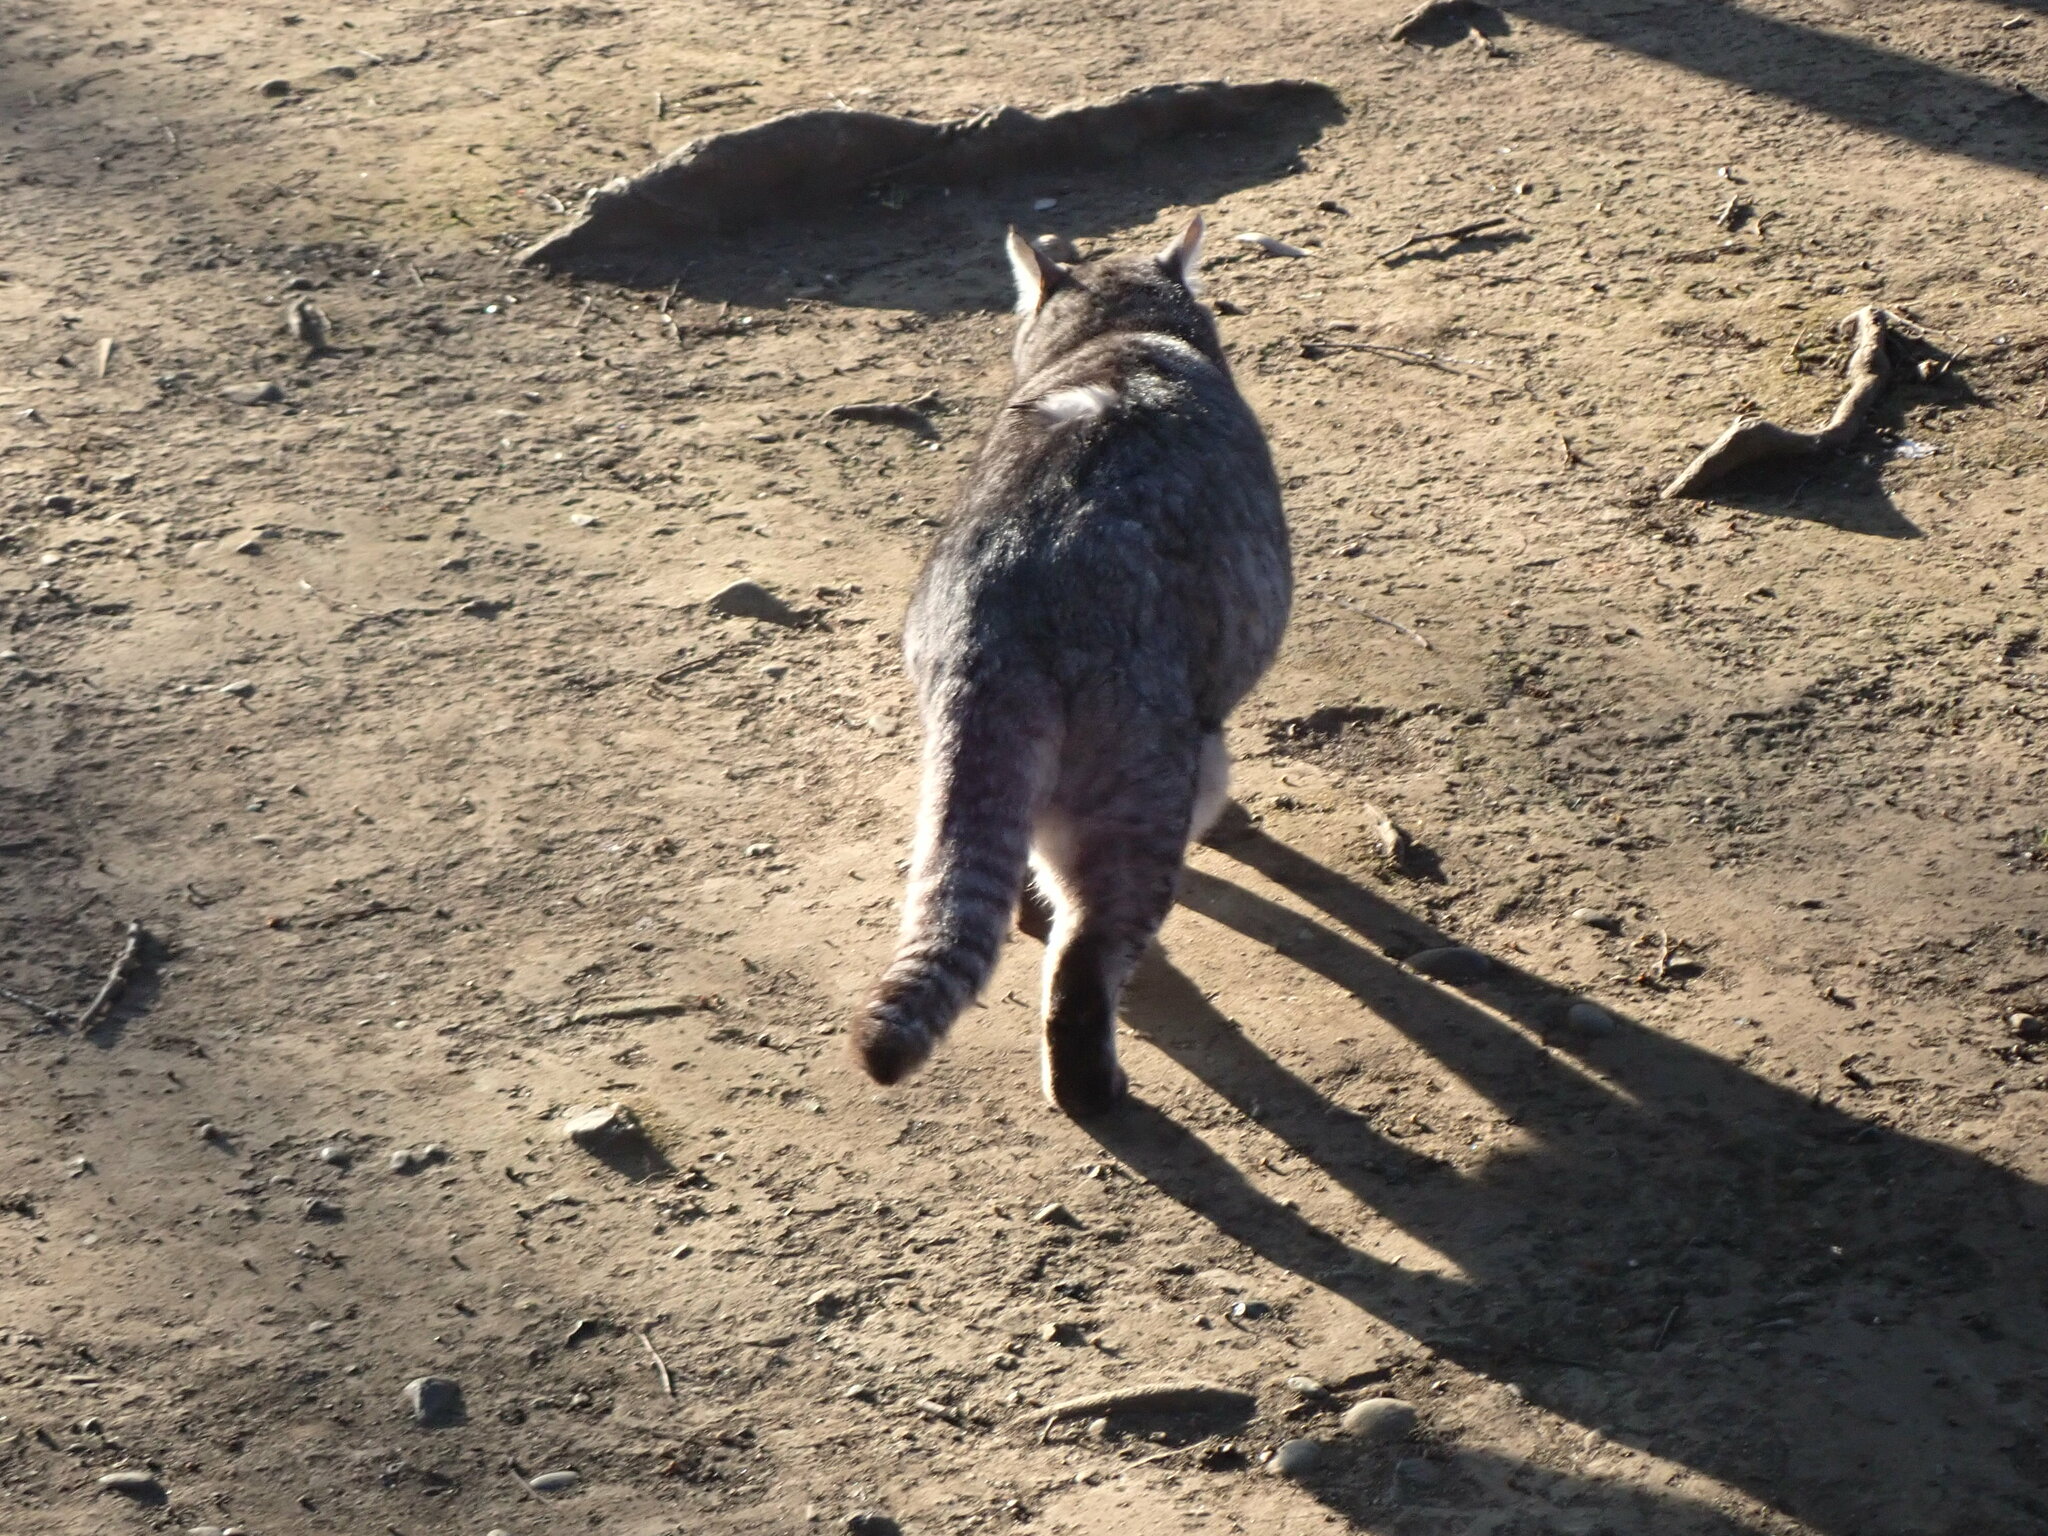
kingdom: Animalia
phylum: Chordata
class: Mammalia
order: Carnivora
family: Felidae
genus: Felis
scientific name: Felis catus
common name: Domestic cat
